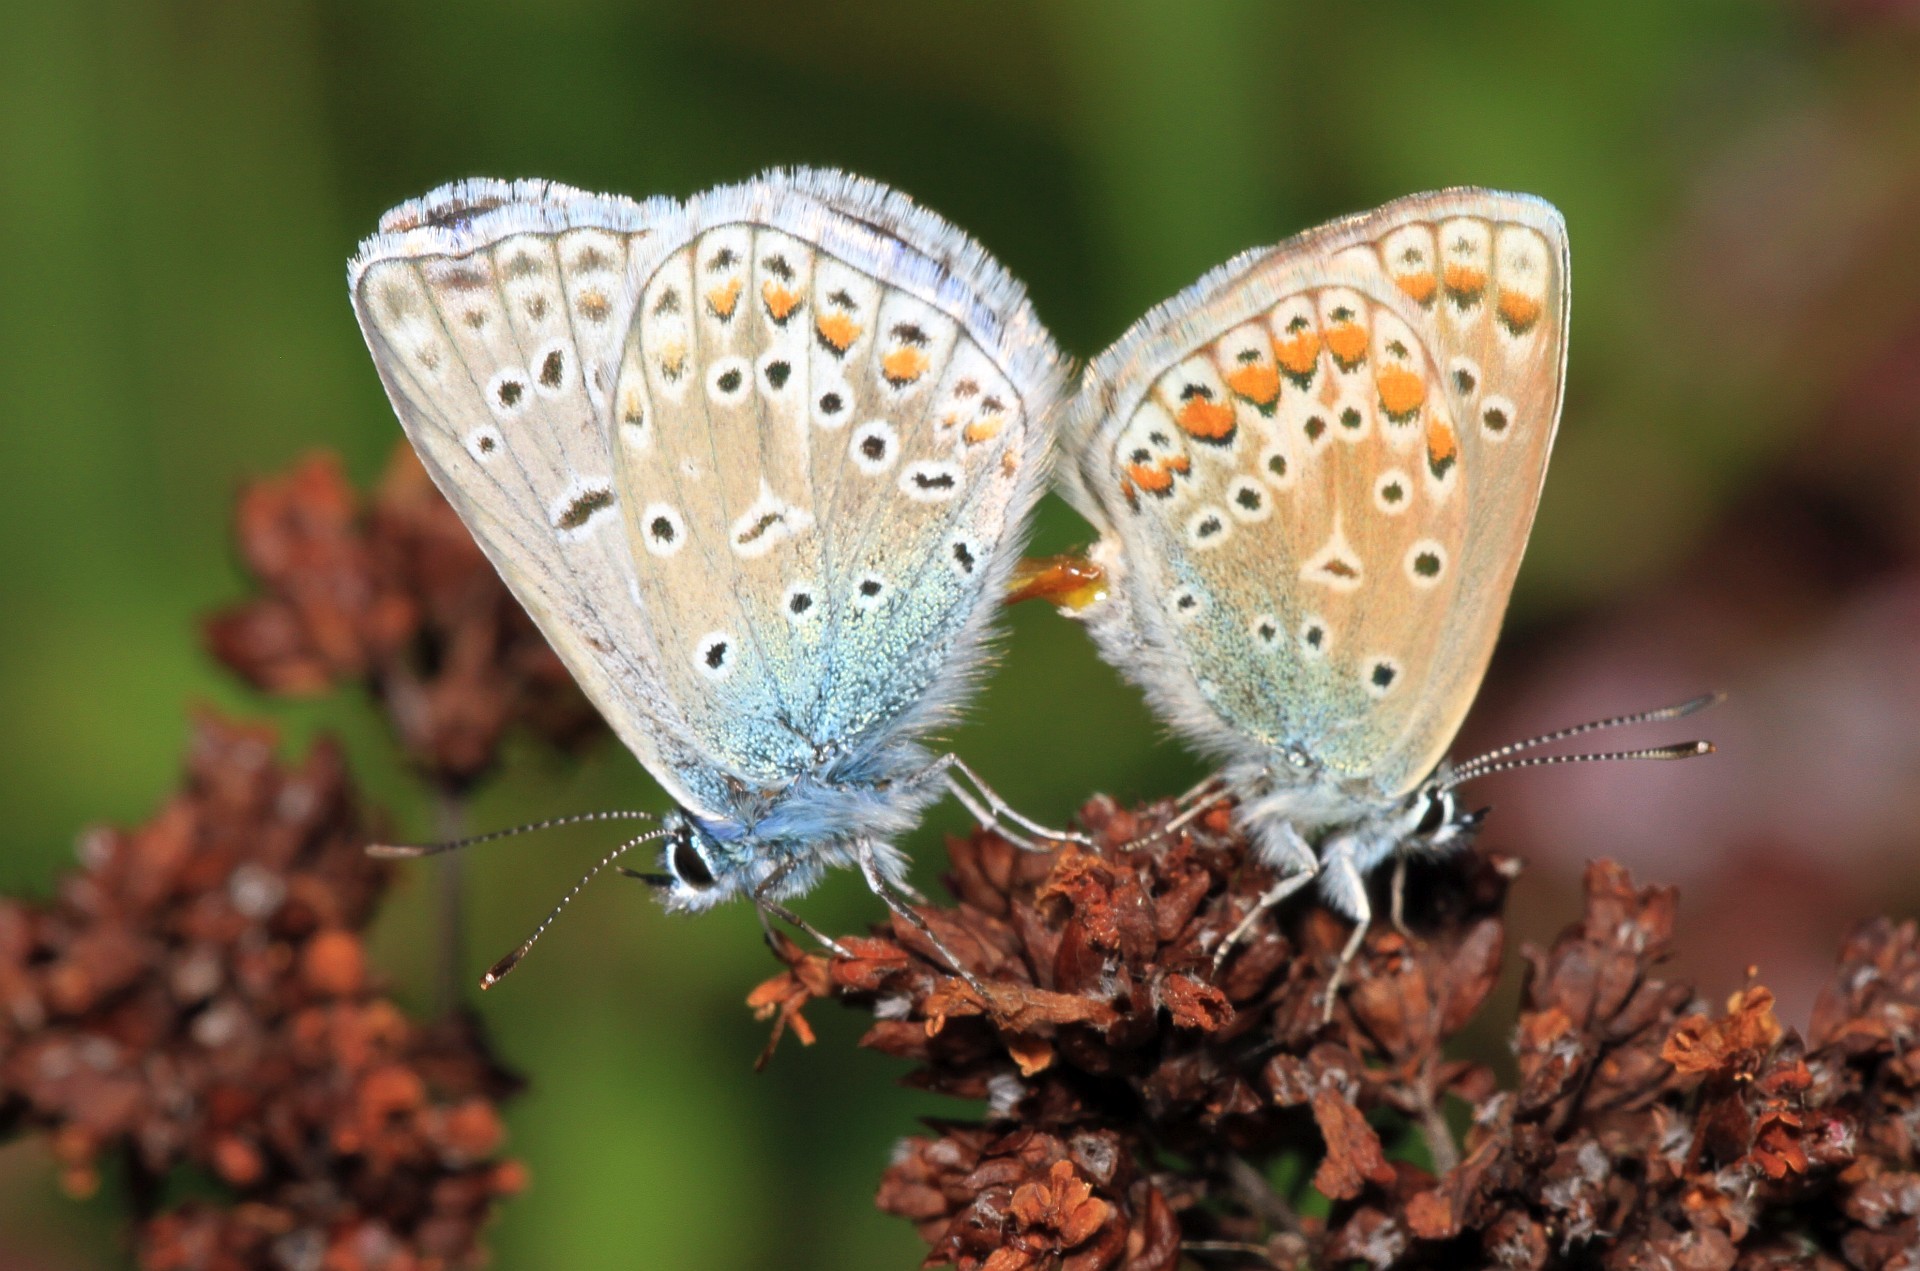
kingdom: Animalia
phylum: Arthropoda
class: Insecta
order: Lepidoptera
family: Lycaenidae
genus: Polyommatus
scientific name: Polyommatus icarus
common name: Common blue
